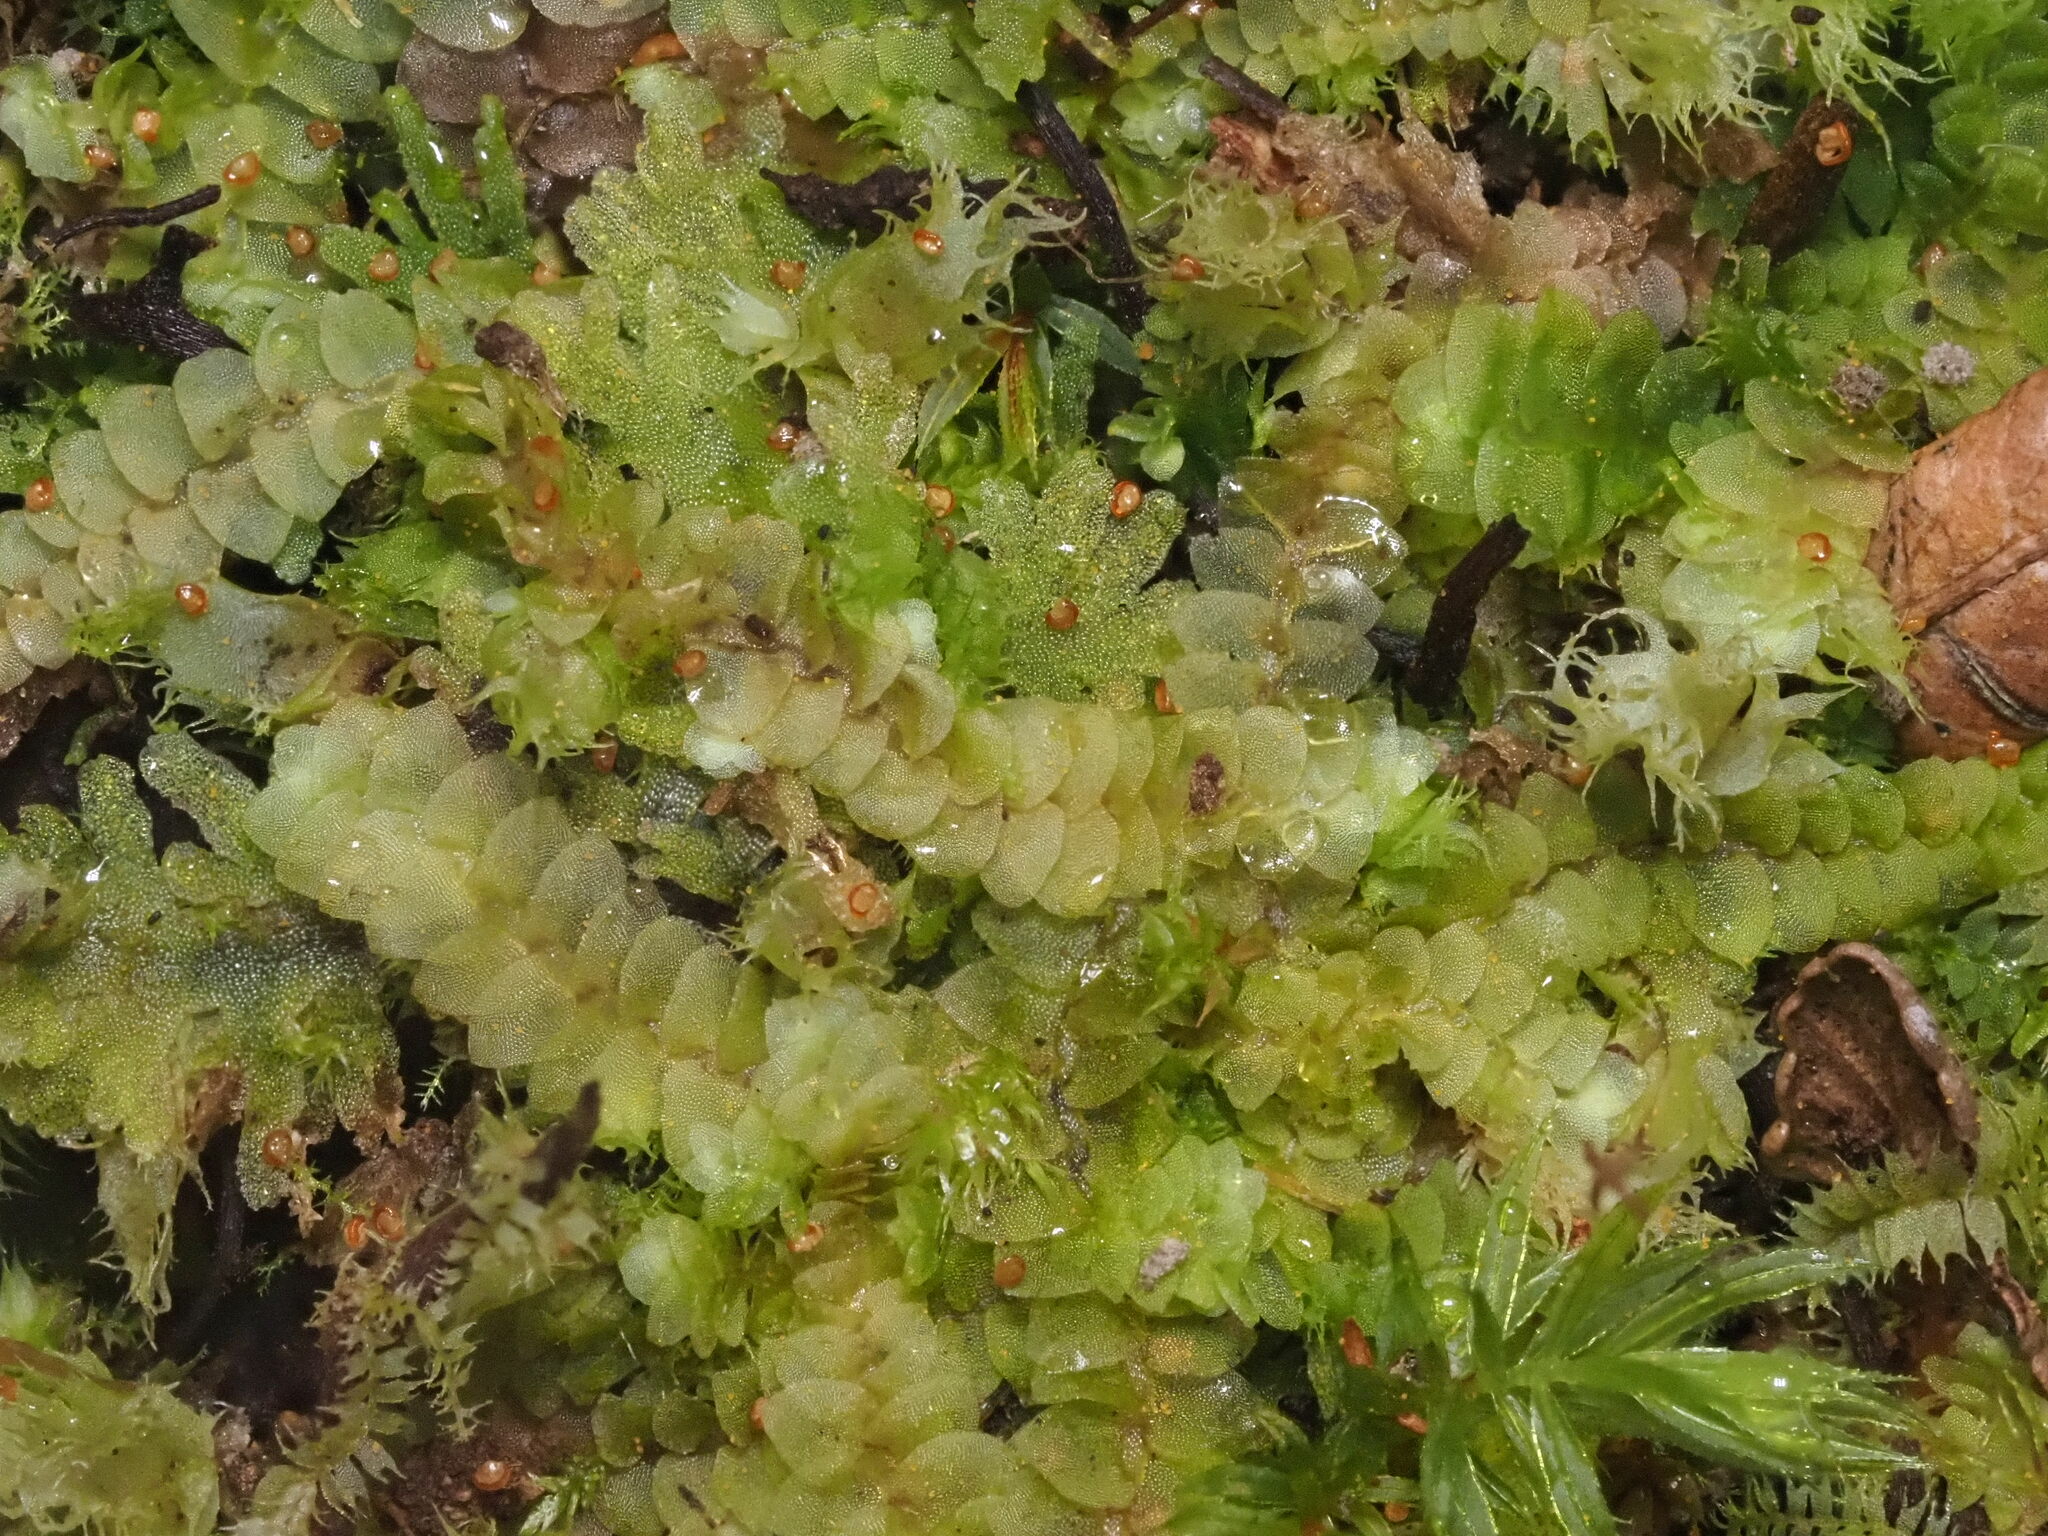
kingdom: Plantae
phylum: Marchantiophyta
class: Jungermanniopsida
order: Jungermanniales
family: Calypogeiaceae
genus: Calypogeia
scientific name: Calypogeia tosana
